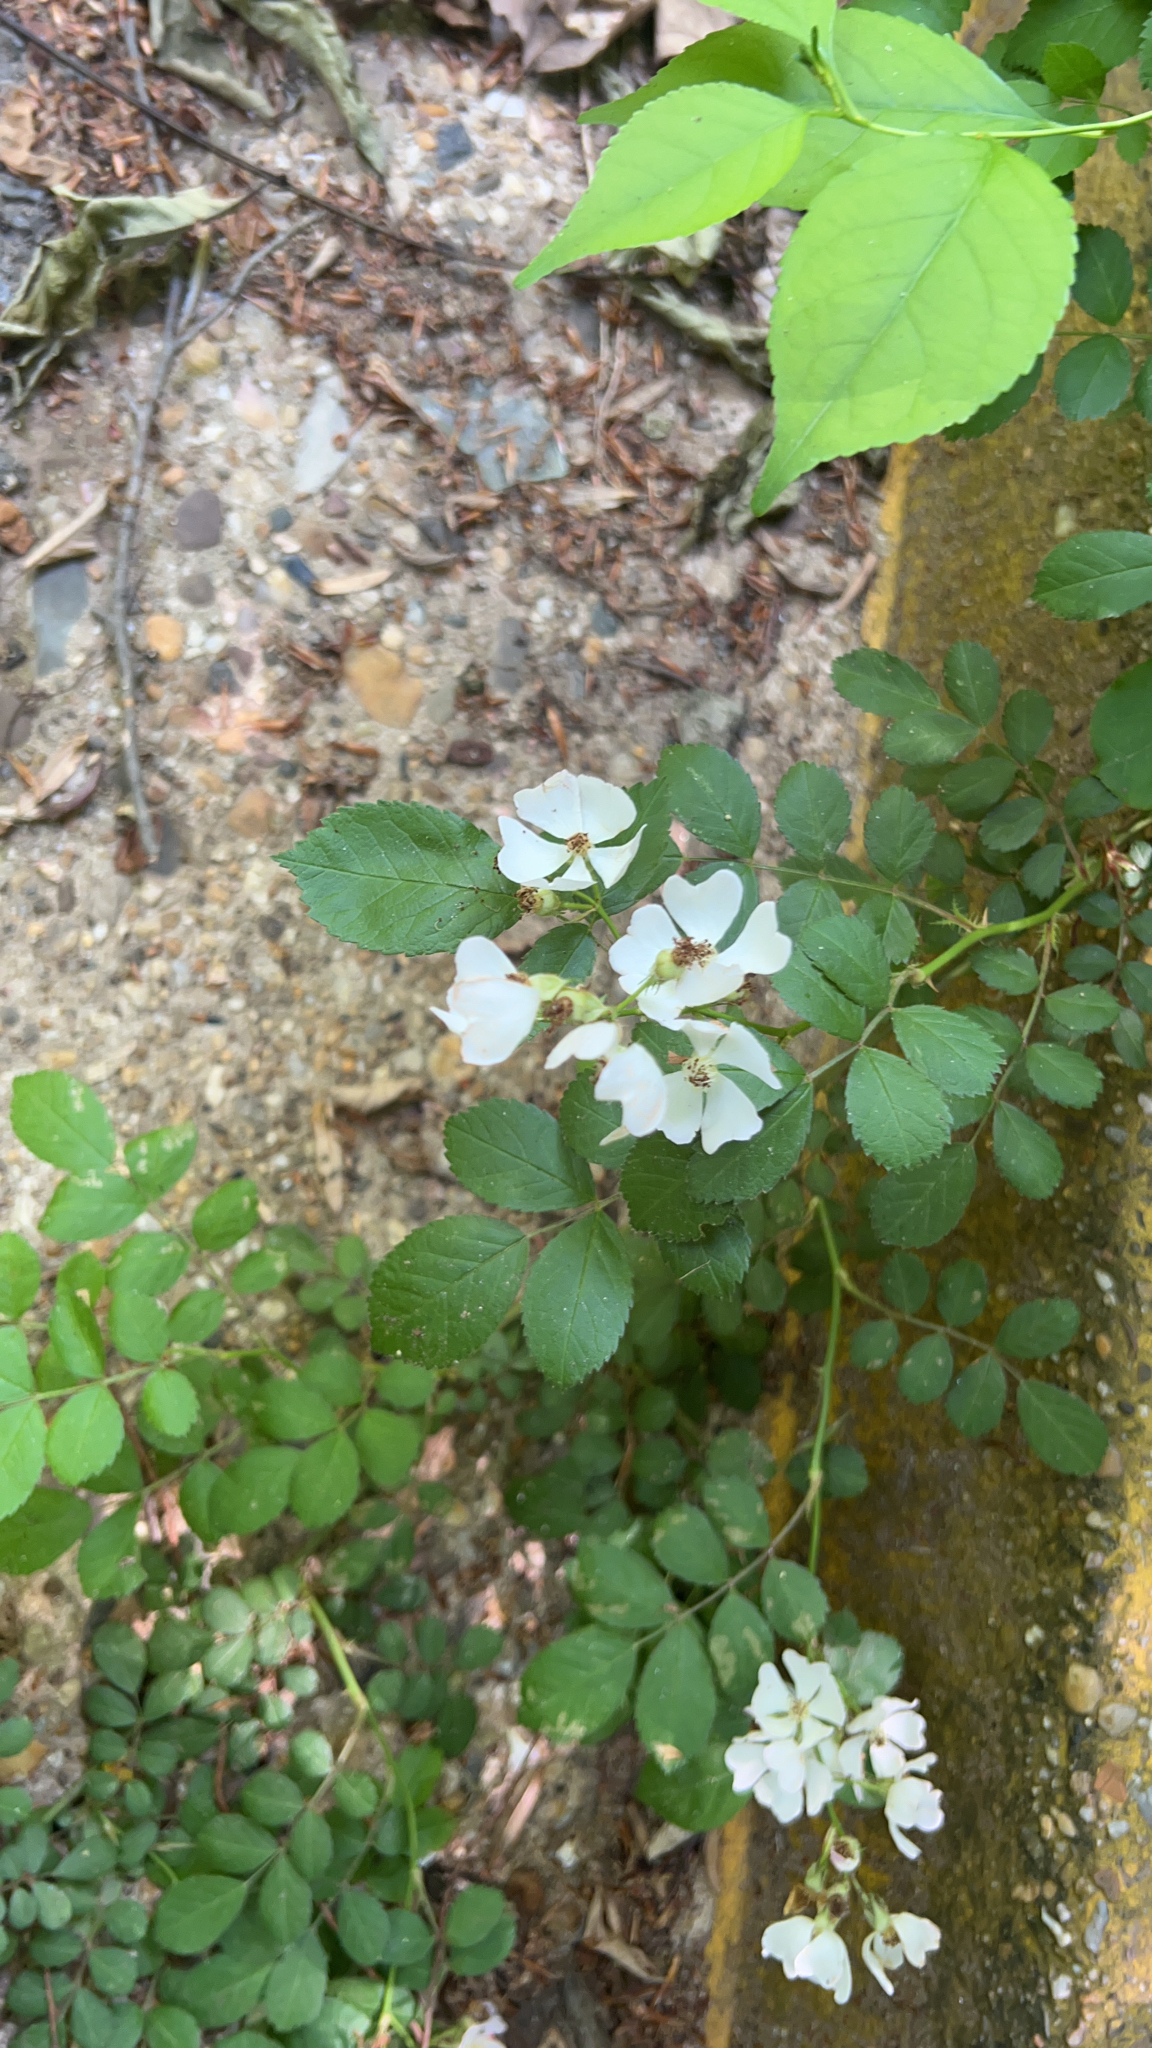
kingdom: Plantae
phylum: Tracheophyta
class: Magnoliopsida
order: Rosales
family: Rosaceae
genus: Rosa
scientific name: Rosa multiflora
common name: Multiflora rose
